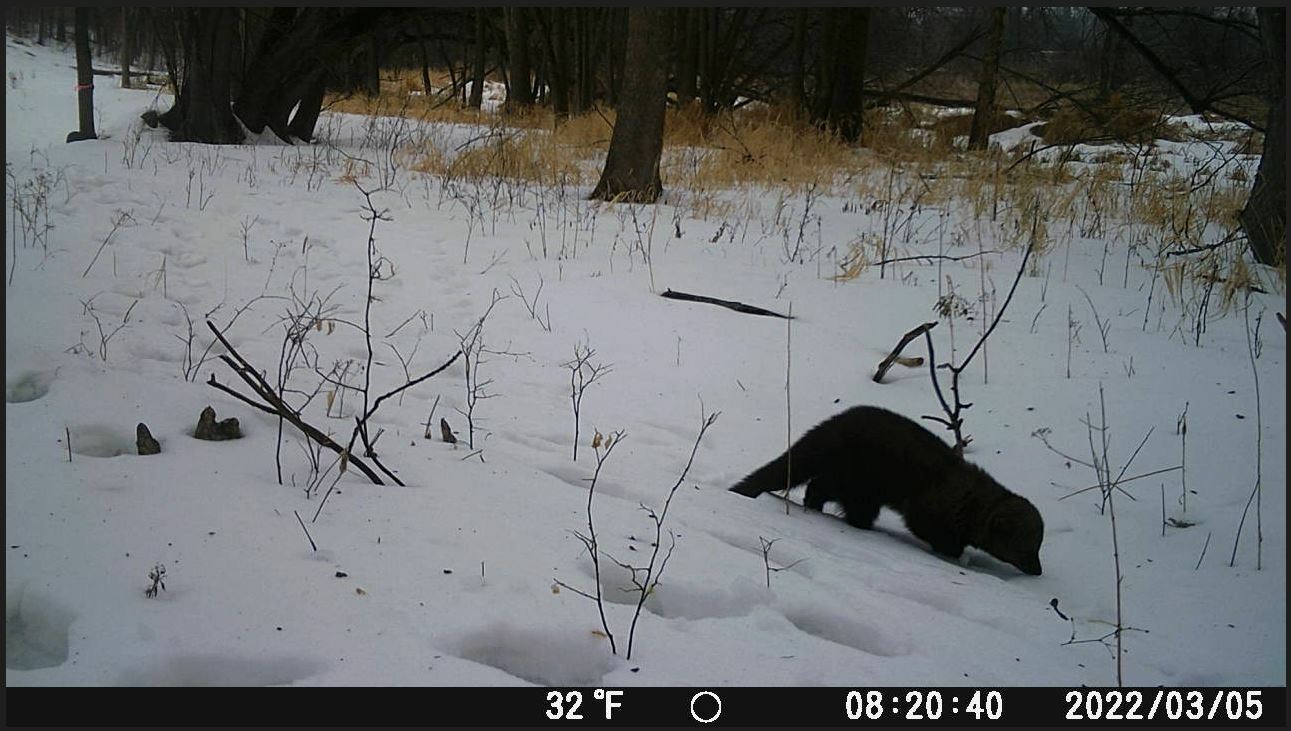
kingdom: Animalia
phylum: Chordata
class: Mammalia
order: Carnivora
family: Mustelidae
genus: Pekania
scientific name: Pekania pennanti
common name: Fisher
